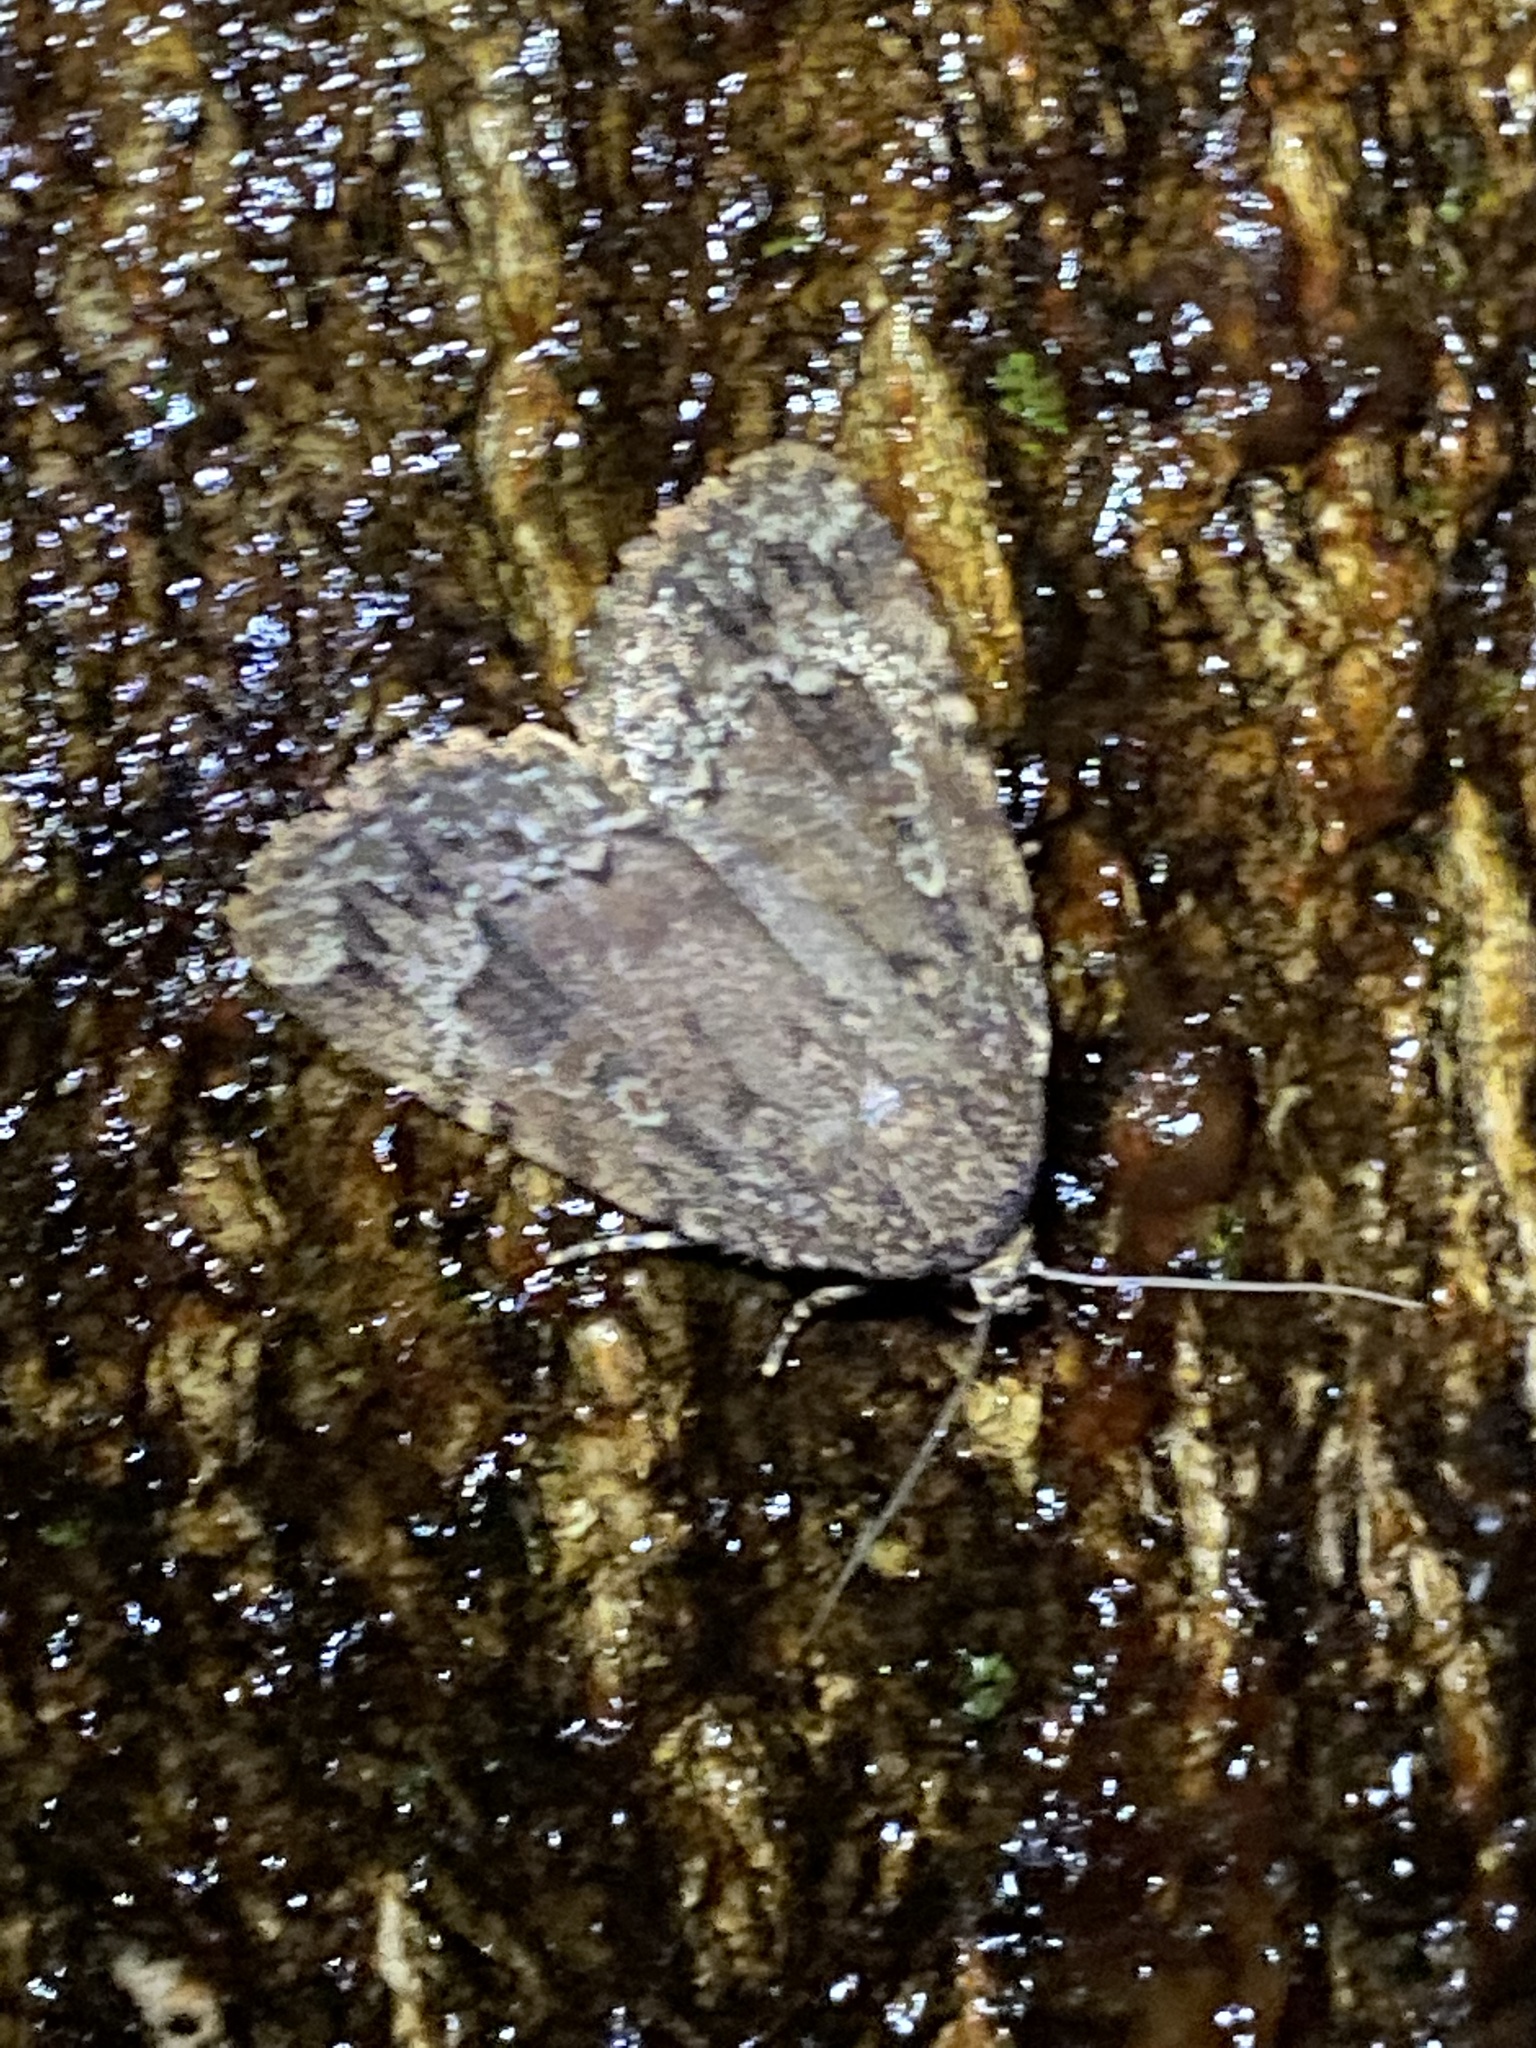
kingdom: Animalia
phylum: Arthropoda
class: Insecta
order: Lepidoptera
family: Noctuidae
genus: Amphipyra
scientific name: Amphipyra pyramidoides
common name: American copper underwing
